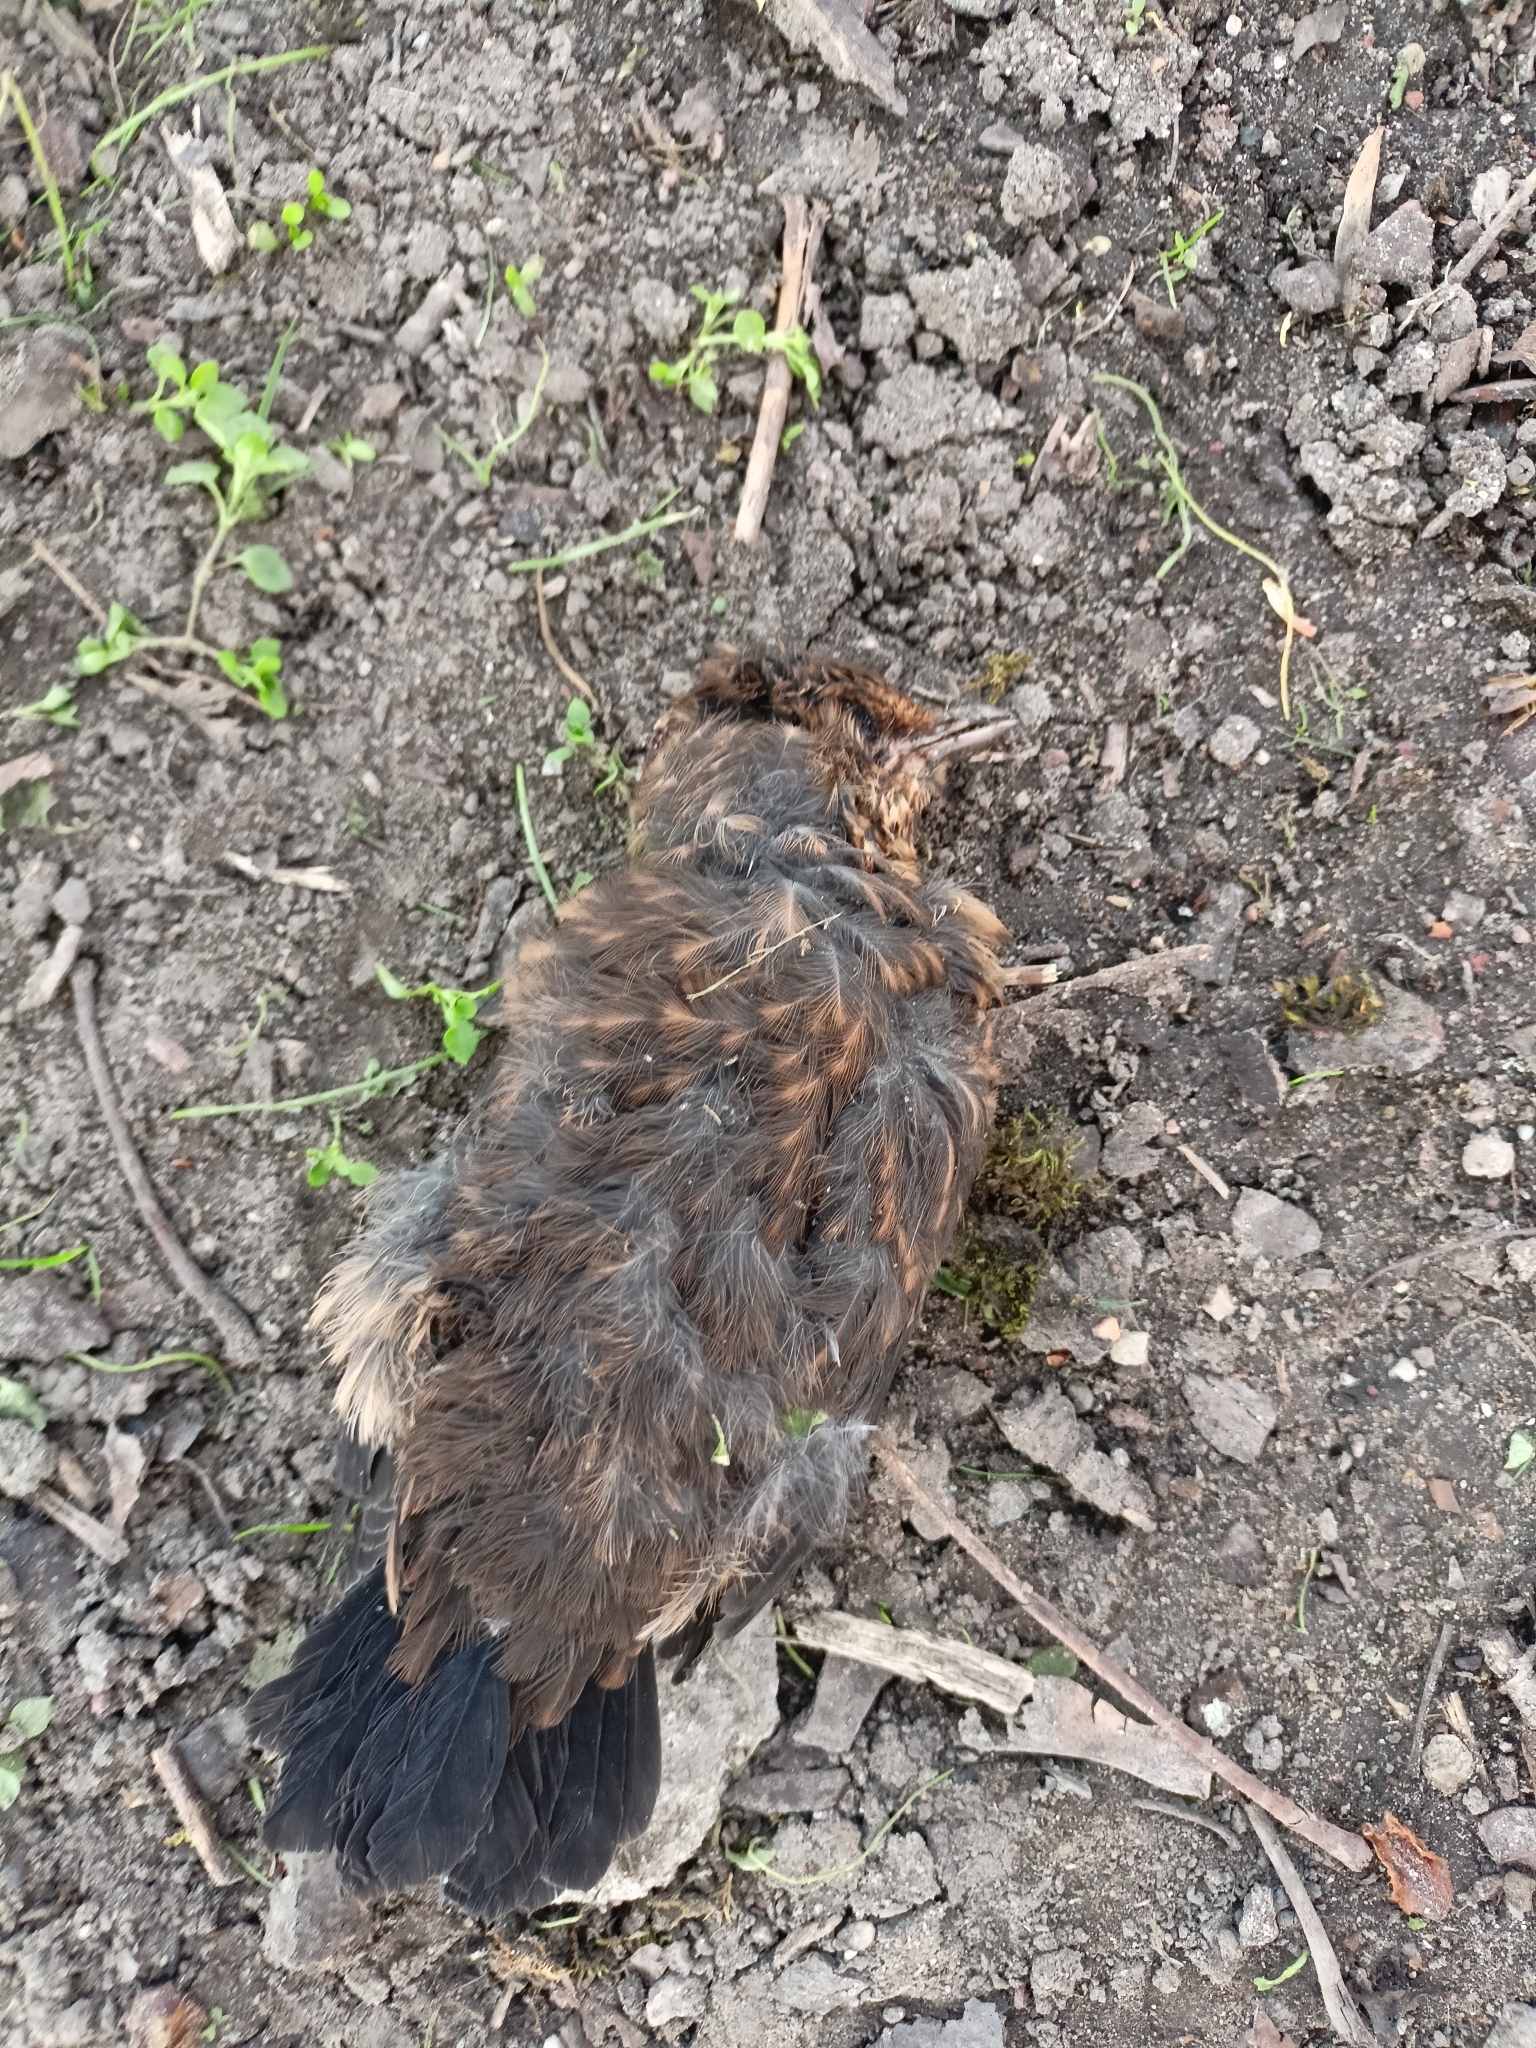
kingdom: Animalia
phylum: Chordata
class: Aves
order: Passeriformes
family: Turdidae
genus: Turdus
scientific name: Turdus merula
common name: Common blackbird
